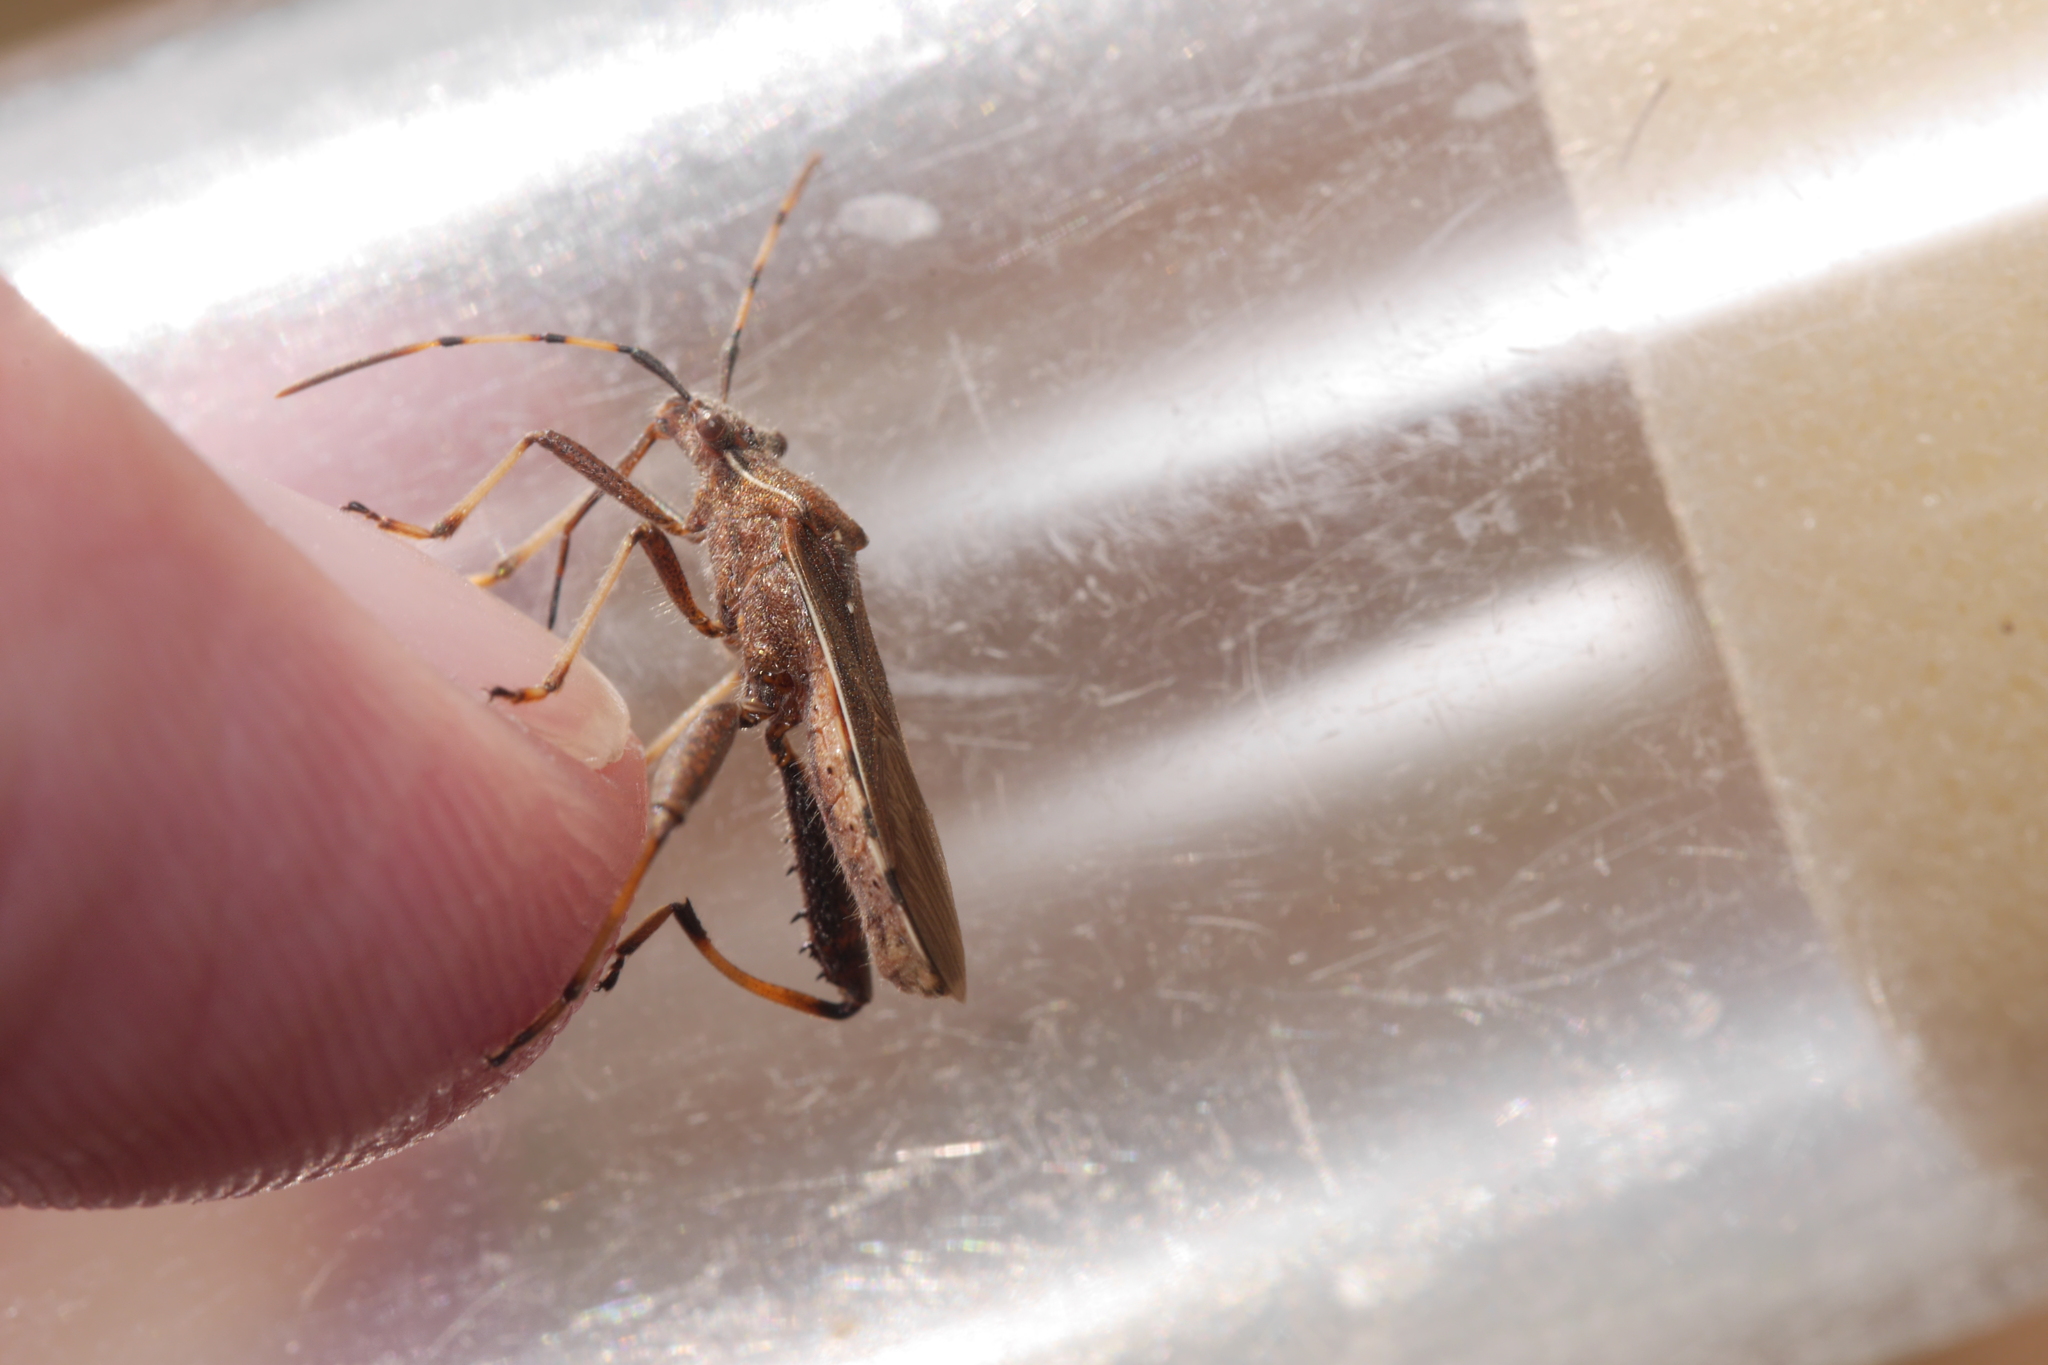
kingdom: Animalia
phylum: Arthropoda
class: Insecta
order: Hemiptera
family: Alydidae
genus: Camptopus
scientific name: Camptopus lateralis
